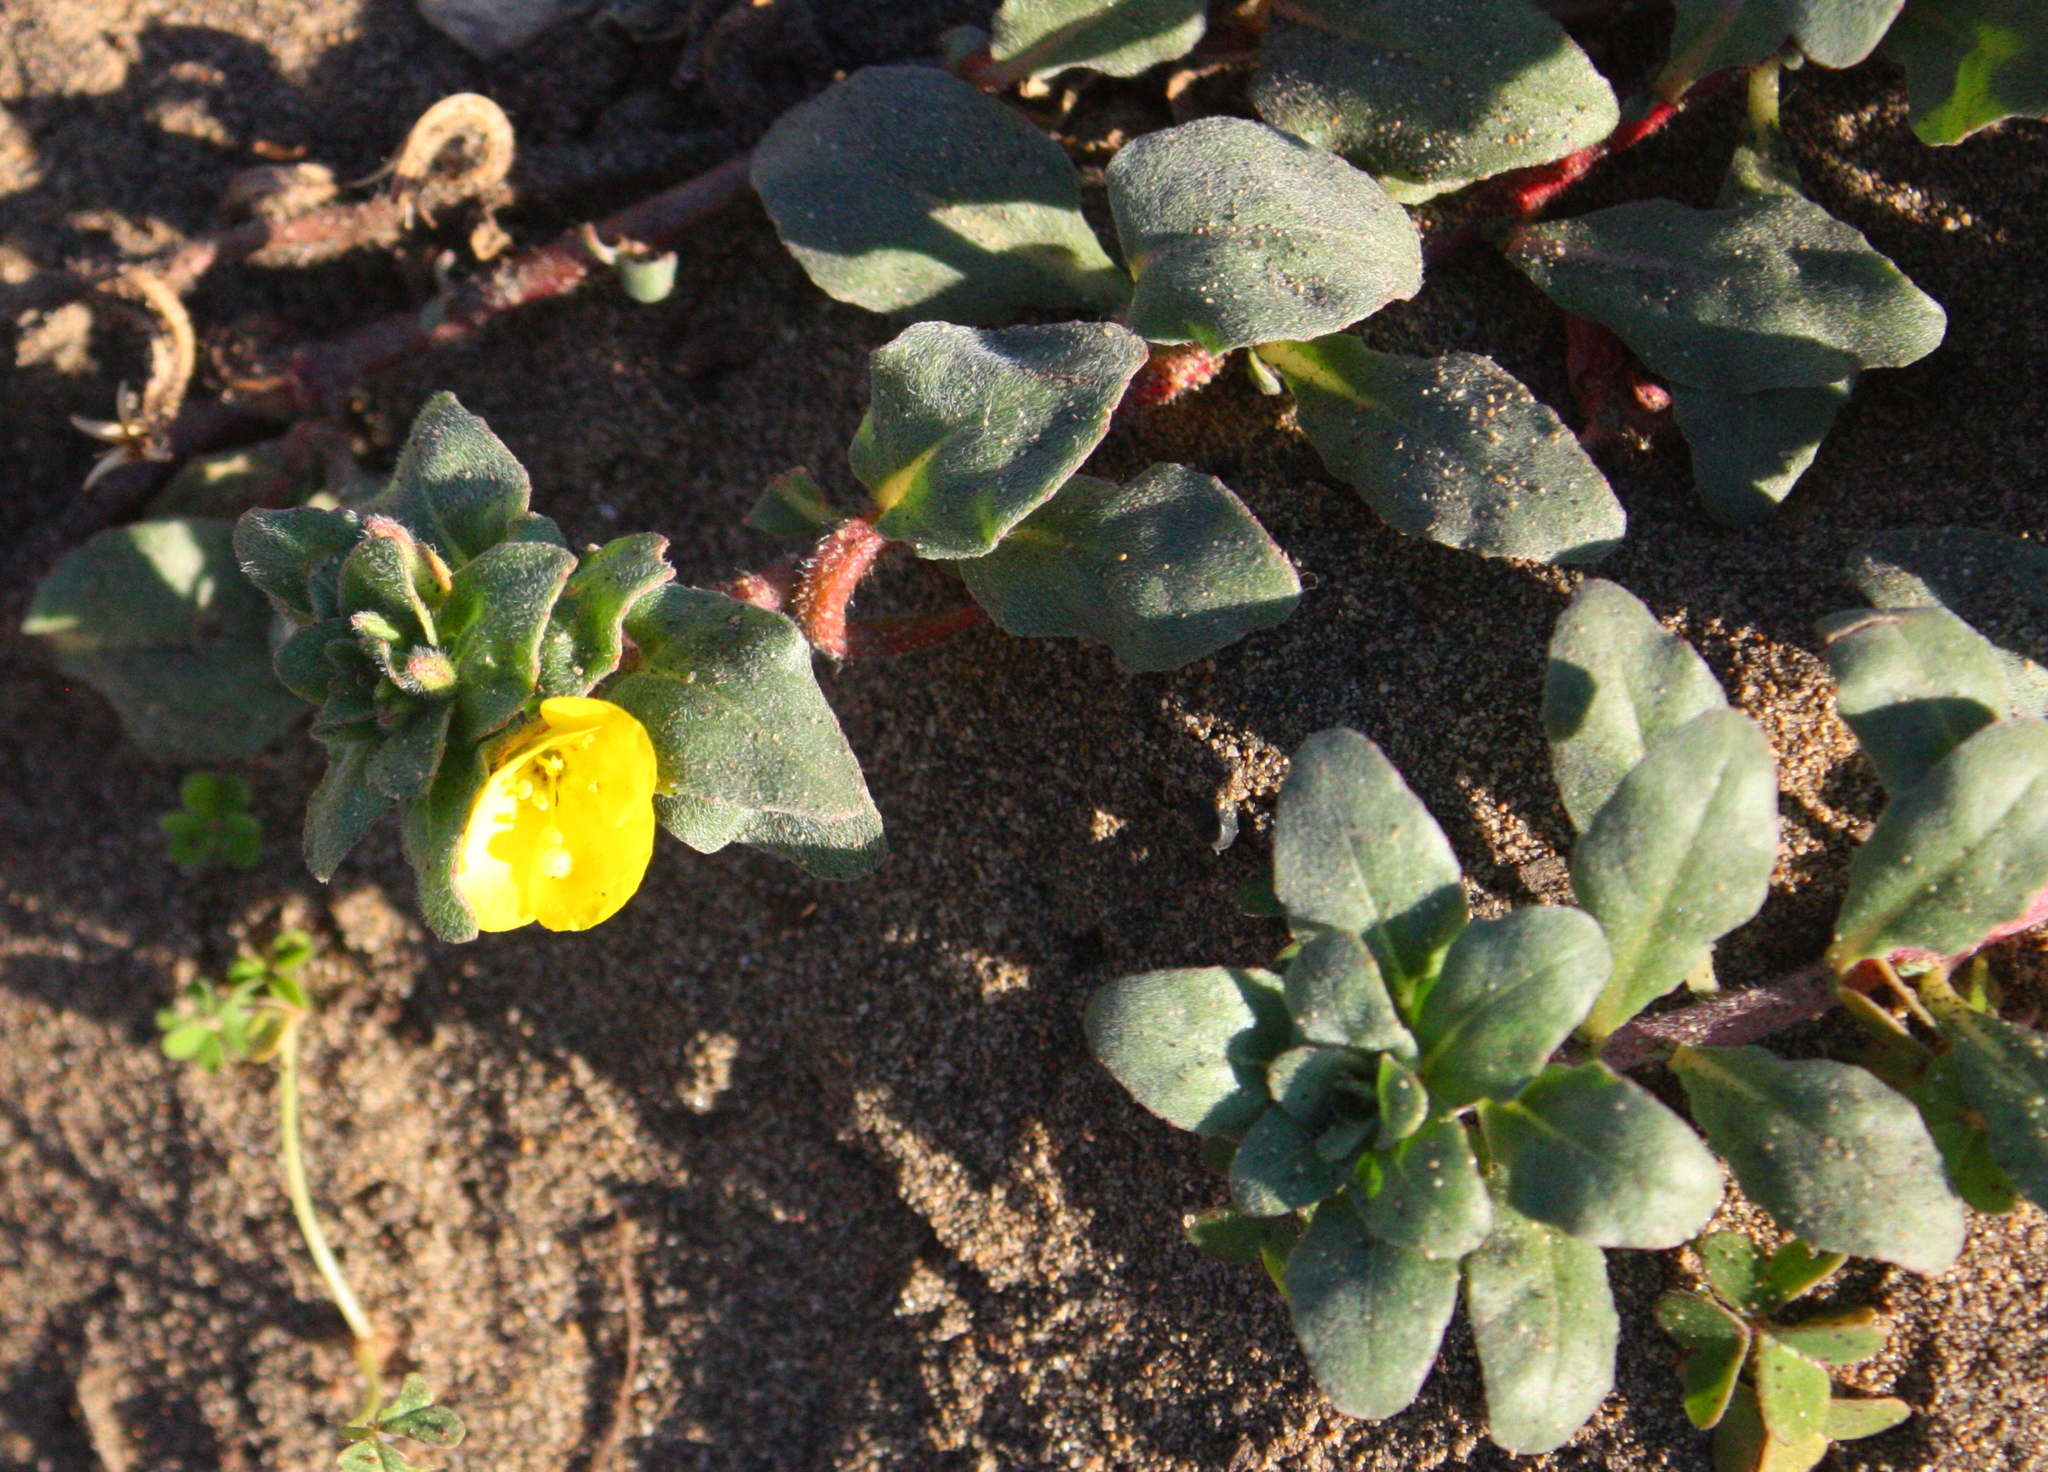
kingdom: Plantae
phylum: Tracheophyta
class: Magnoliopsida
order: Myrtales
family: Onagraceae
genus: Camissoniopsis
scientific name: Camissoniopsis cheiranthifolia
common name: Beach suncup
